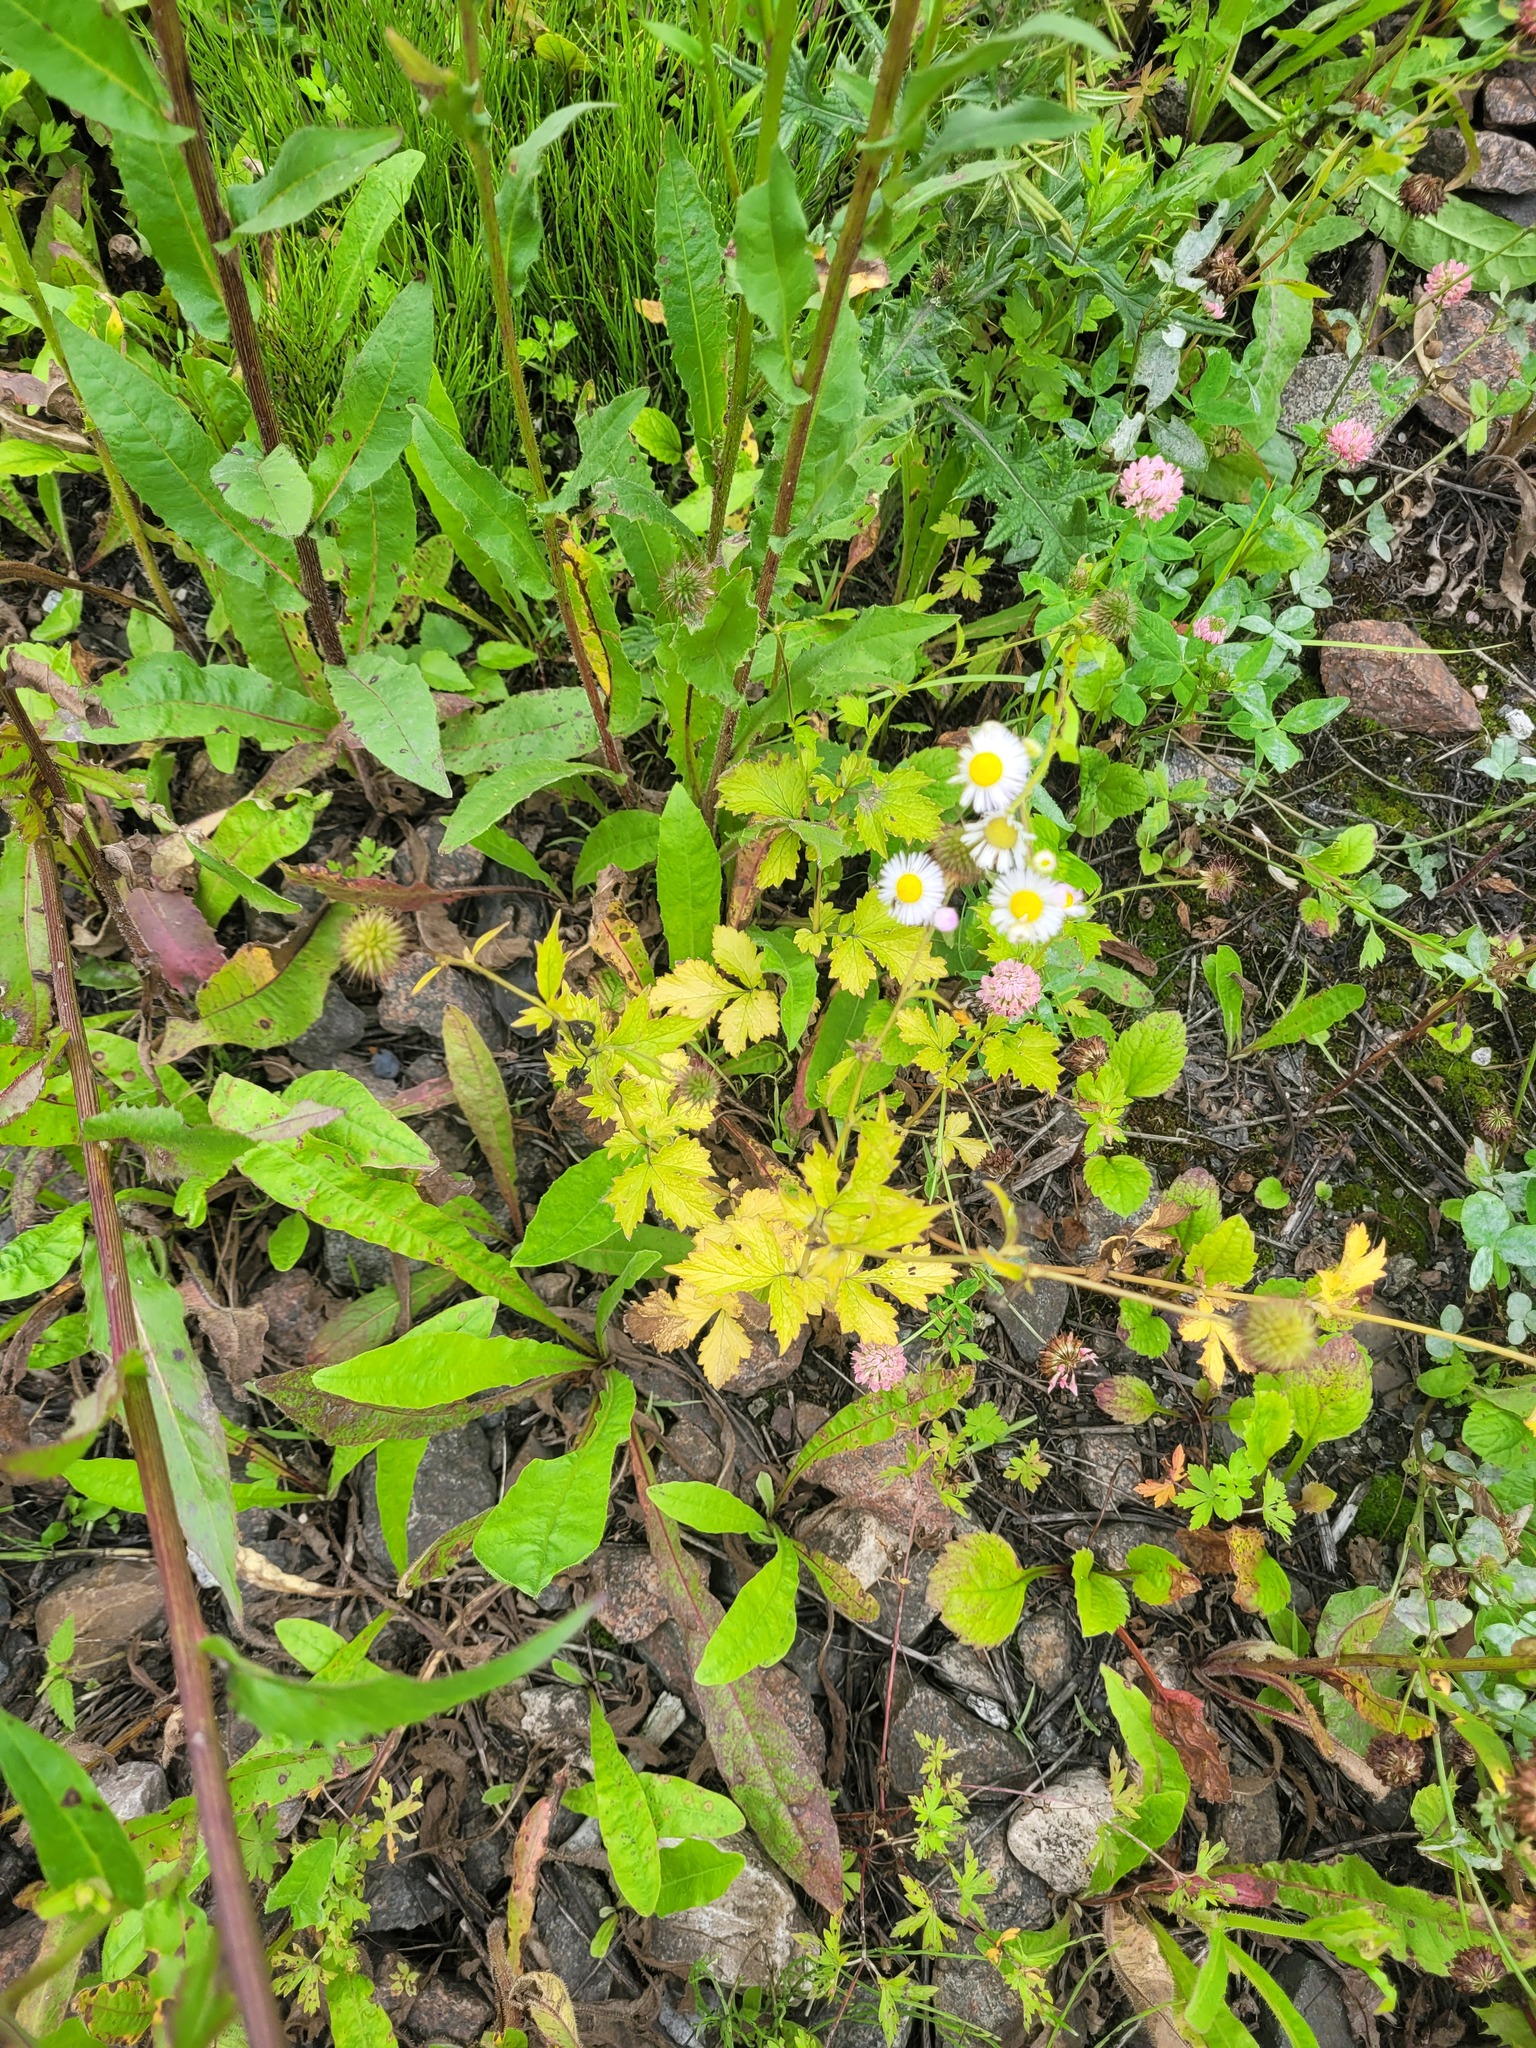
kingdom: Plantae
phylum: Tracheophyta
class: Magnoliopsida
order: Rosales
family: Rosaceae
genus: Geum
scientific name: Geum urbanum
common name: Wood avens
